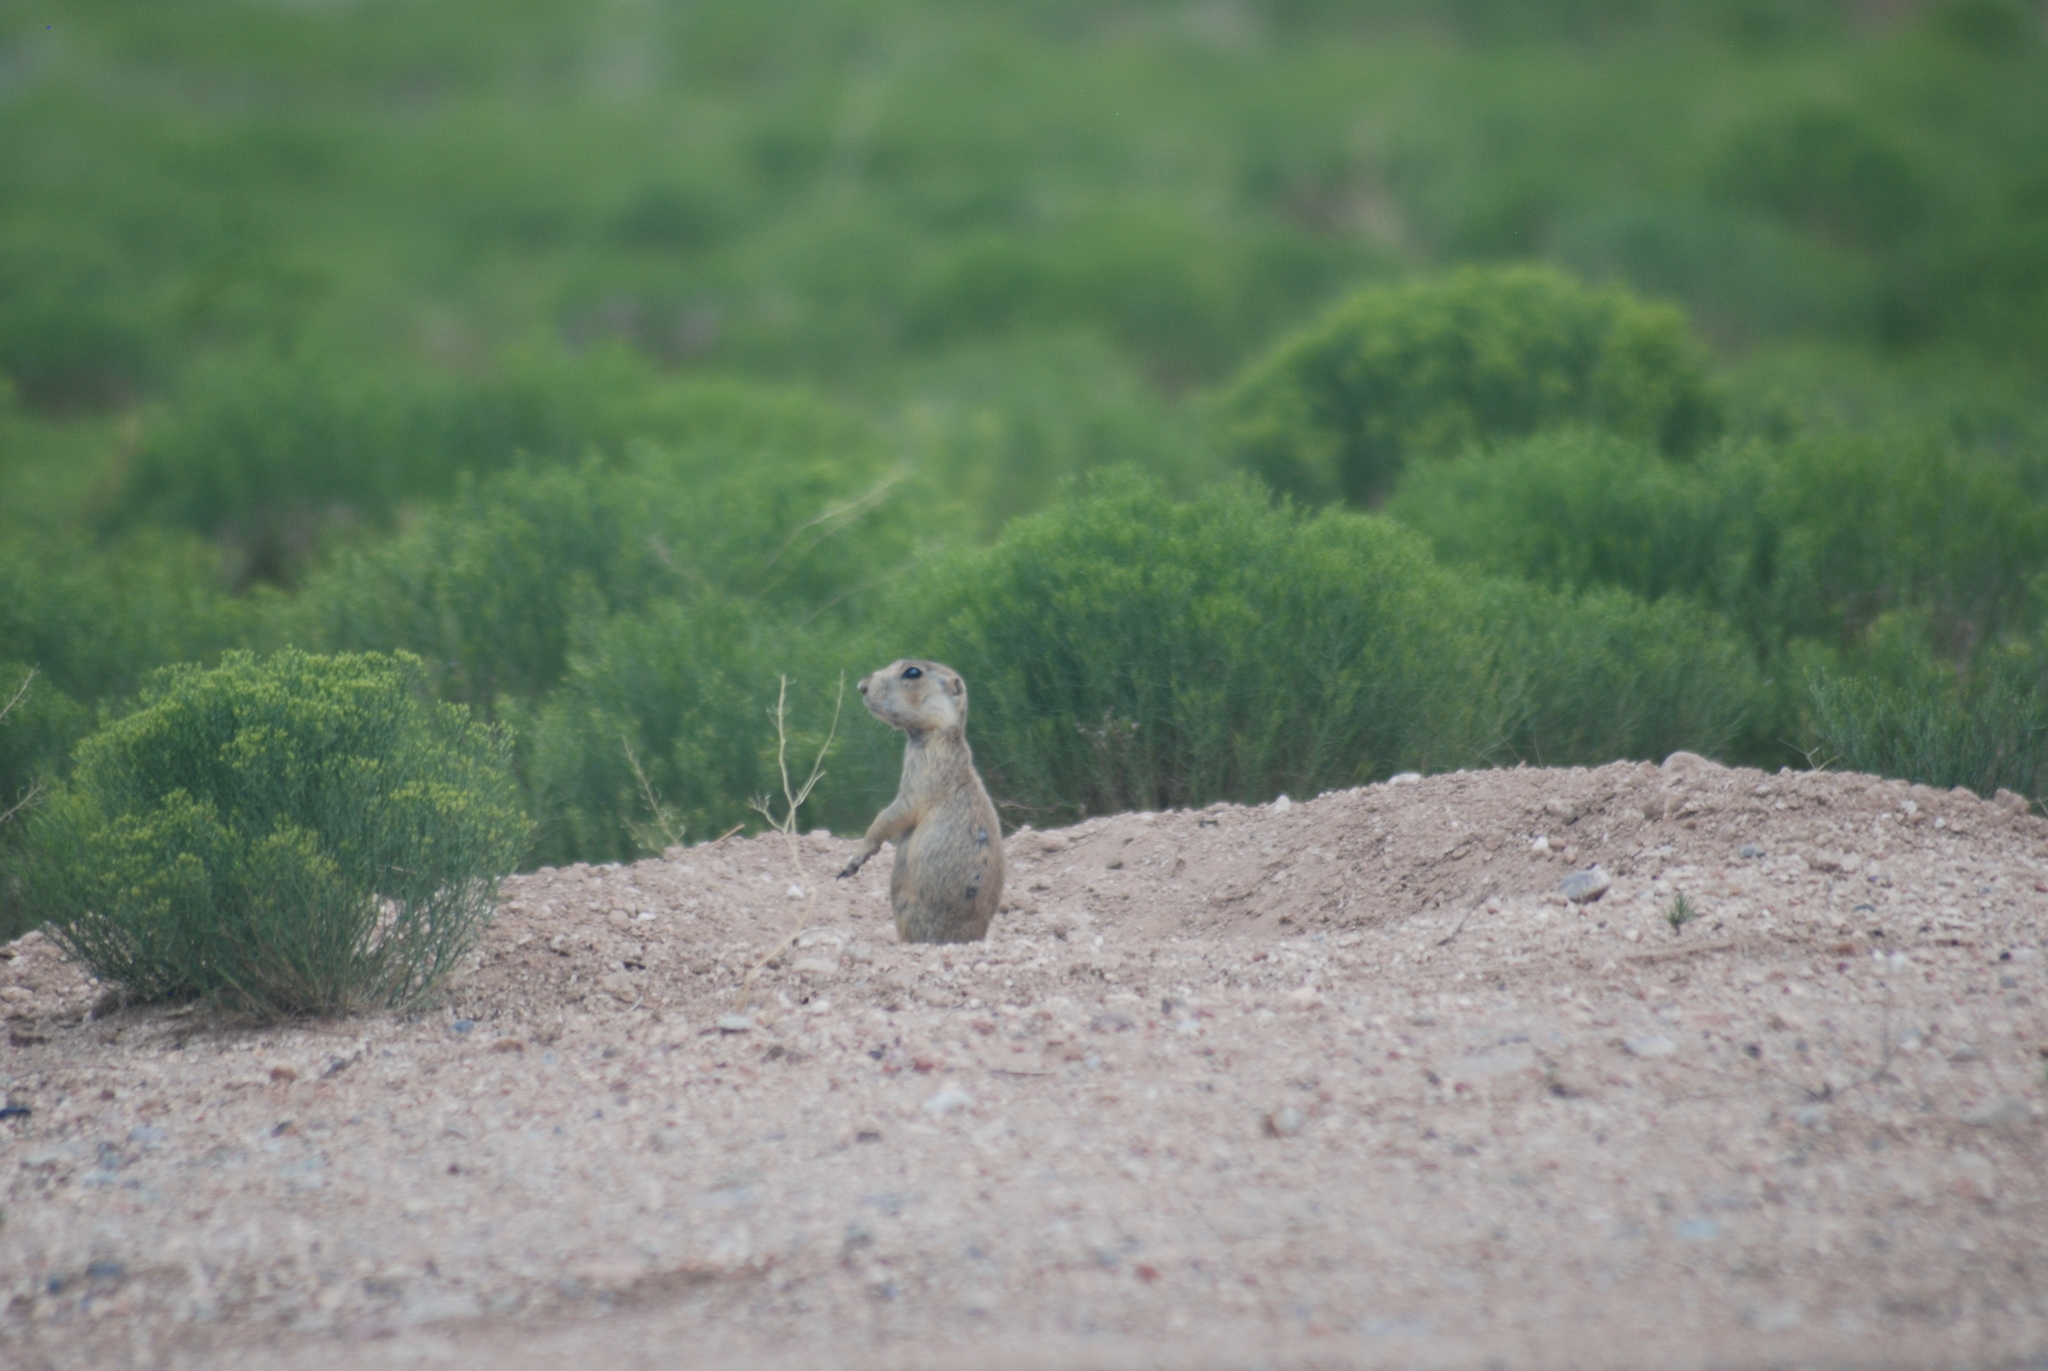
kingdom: Animalia
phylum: Chordata
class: Mammalia
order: Rodentia
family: Sciuridae
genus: Cynomys
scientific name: Cynomys gunnisoni
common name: Gunnison's prairie dog
